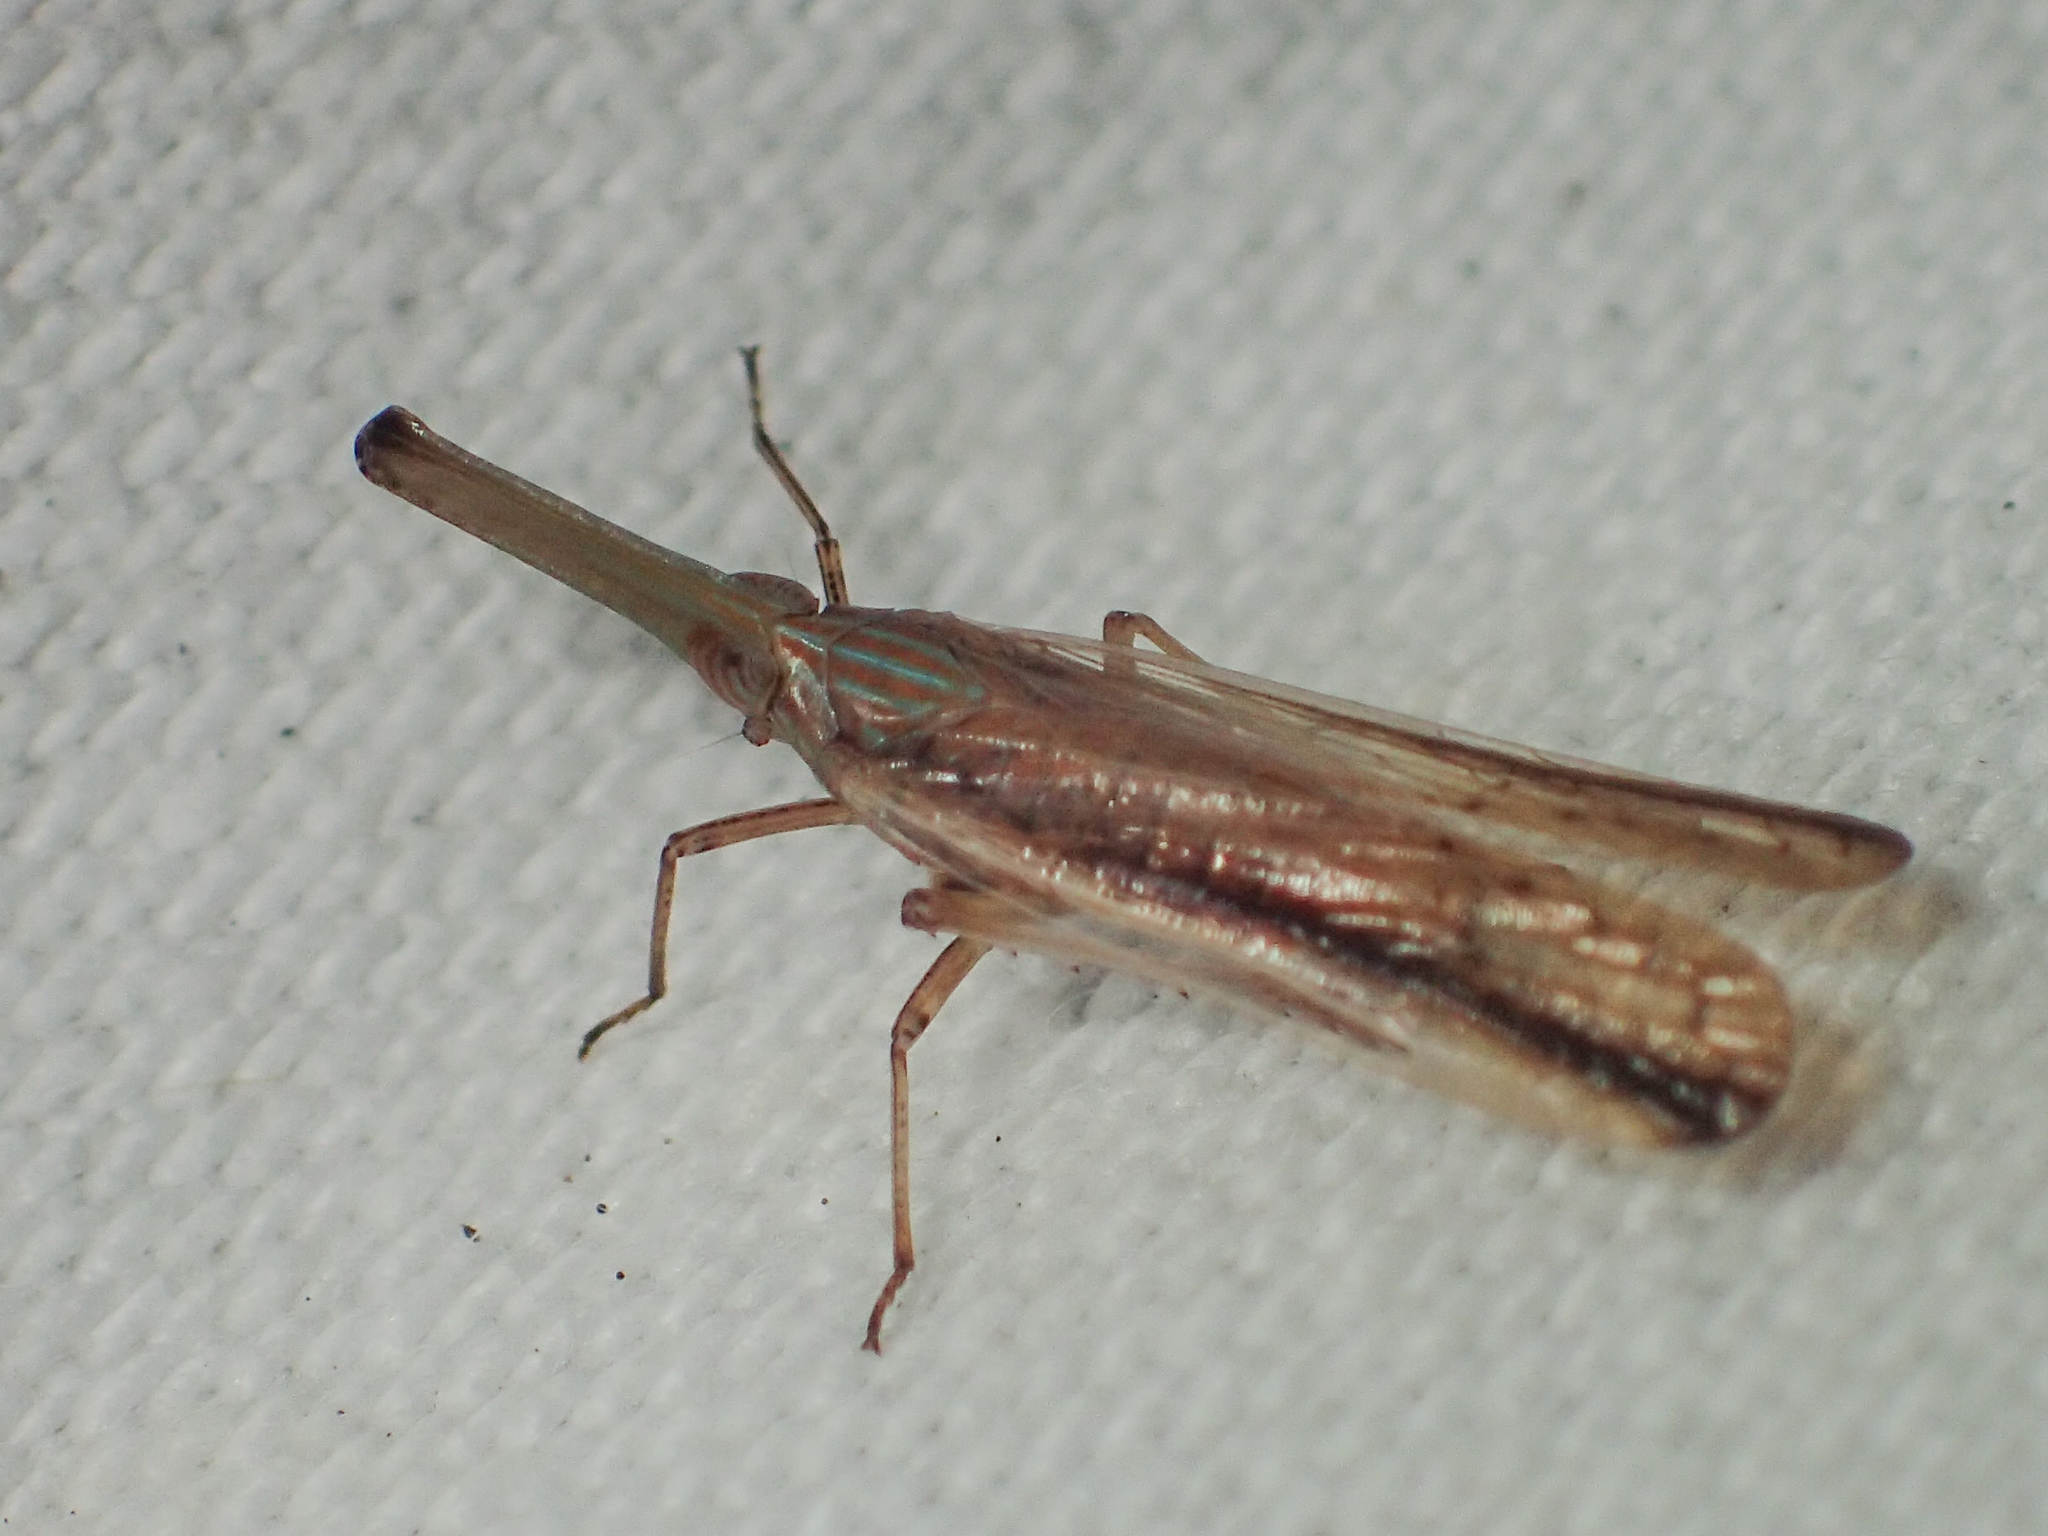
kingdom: Animalia
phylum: Arthropoda
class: Insecta
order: Hemiptera
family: Dictyopharidae
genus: Zedochir
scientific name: Zedochir fuscovittatus
